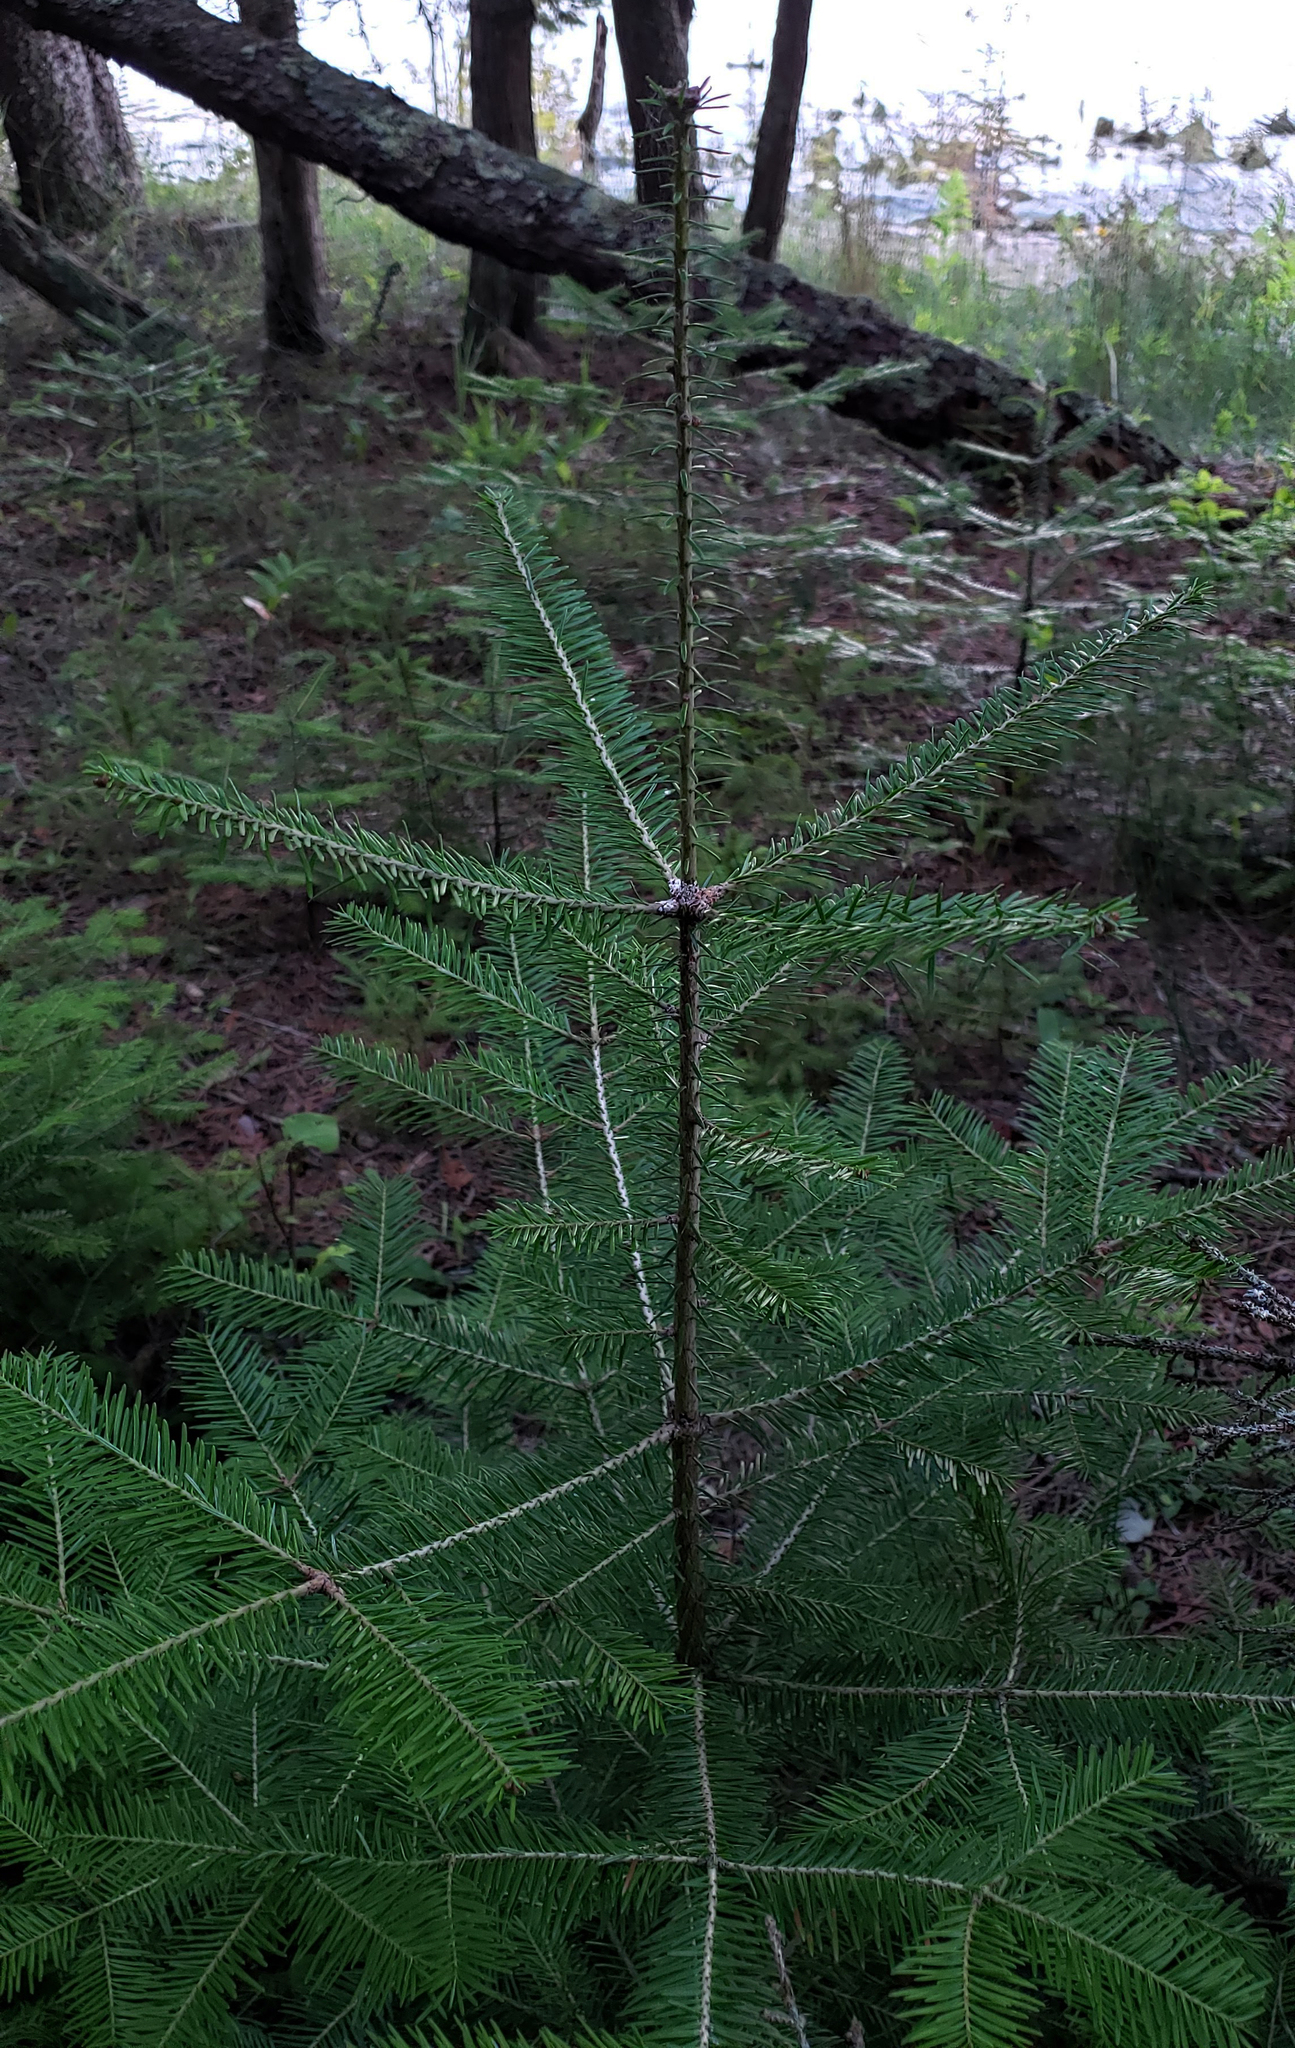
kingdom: Plantae
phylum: Tracheophyta
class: Pinopsida
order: Pinales
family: Pinaceae
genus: Abies
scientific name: Abies balsamea
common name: Balsam fir
